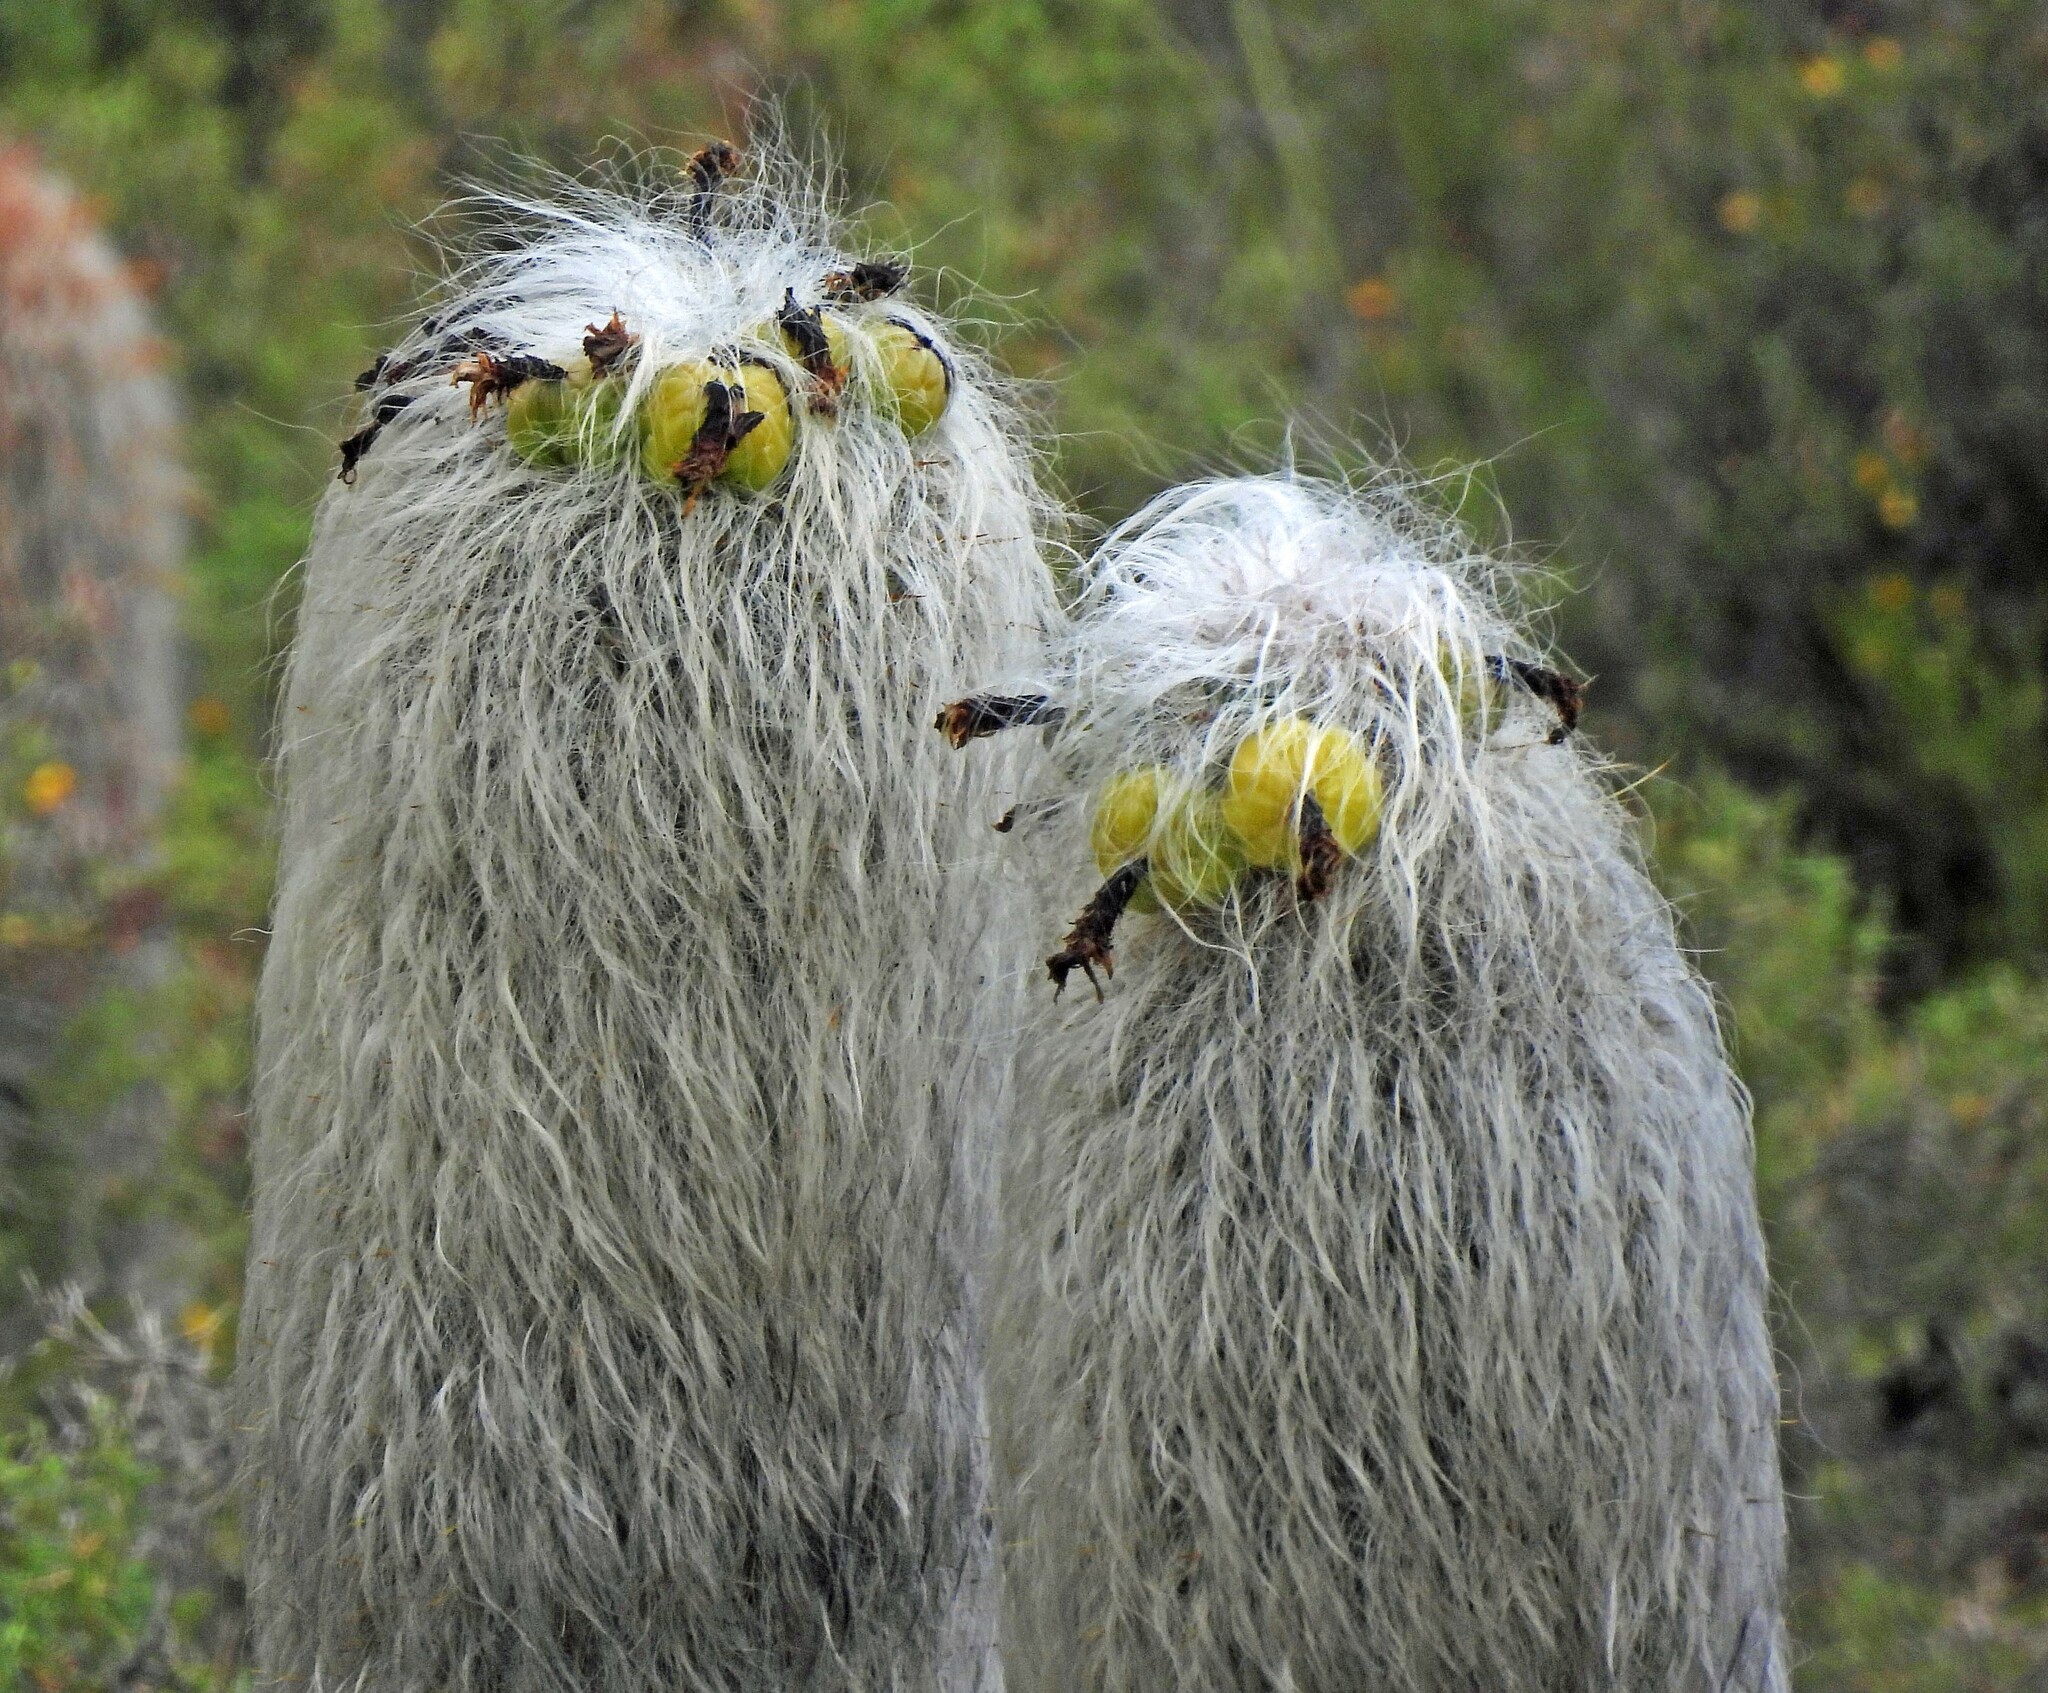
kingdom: Plantae
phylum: Tracheophyta
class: Magnoliopsida
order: Caryophyllales
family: Cactaceae
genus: Oreocereus
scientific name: Oreocereus trollii
